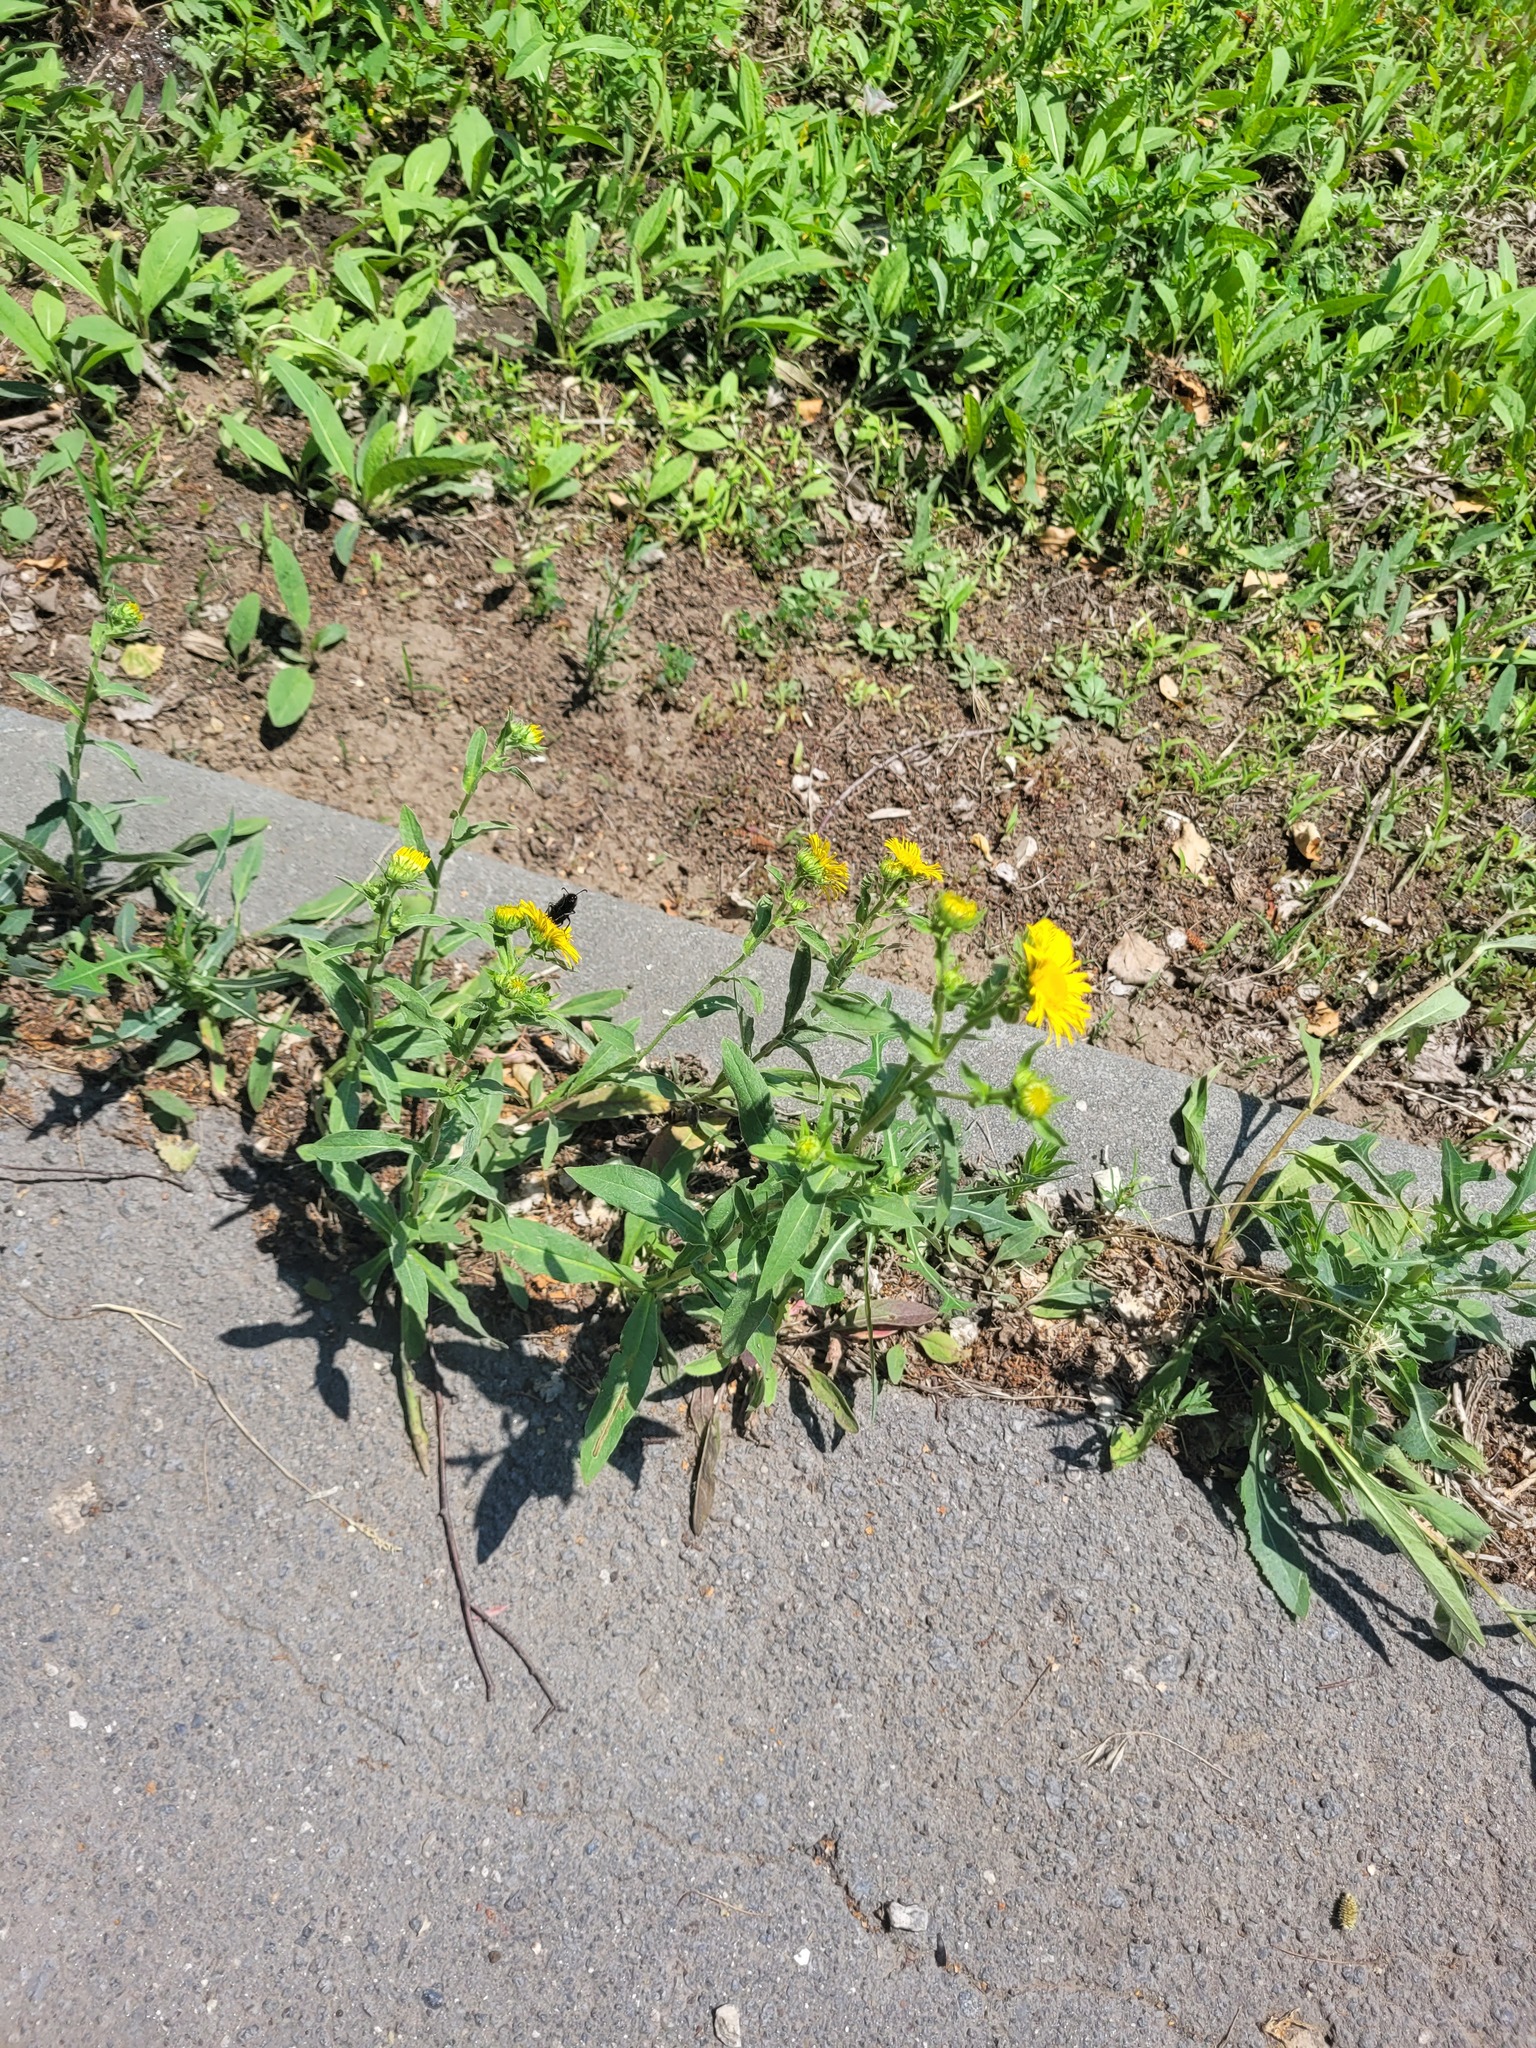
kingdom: Plantae
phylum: Tracheophyta
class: Magnoliopsida
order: Asterales
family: Asteraceae
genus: Pentanema
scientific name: Pentanema britannicum
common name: British elecampane
